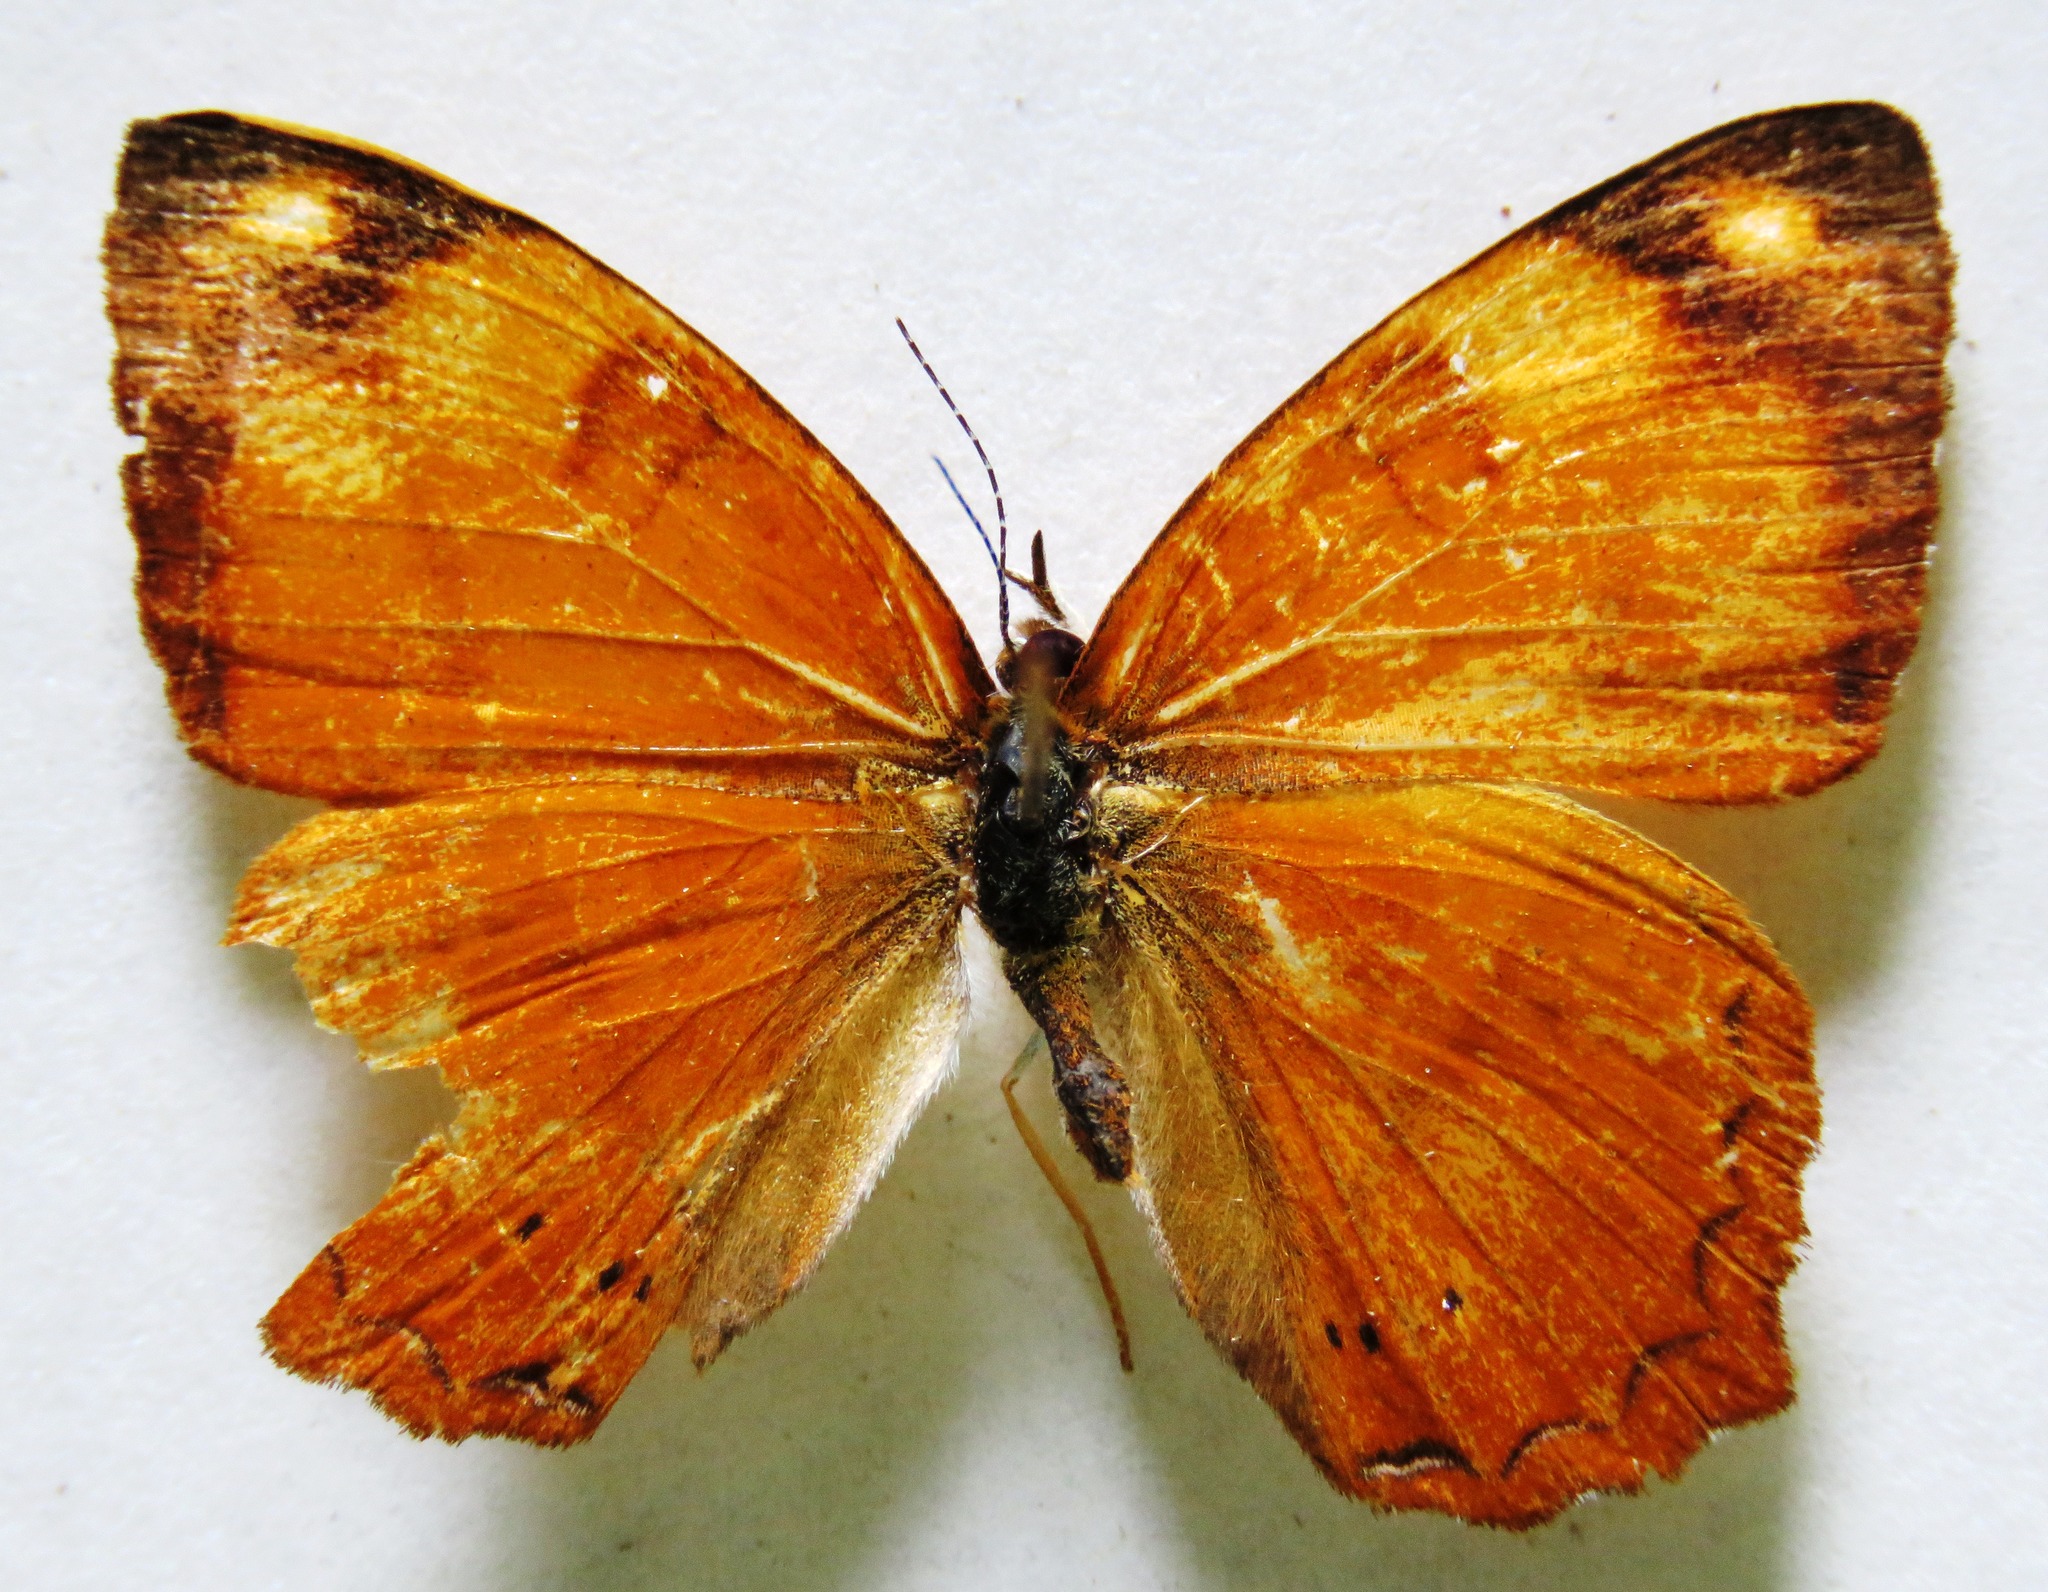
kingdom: Animalia
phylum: Arthropoda
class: Insecta
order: Lepidoptera
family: Nymphalidae
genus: Nica
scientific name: Nica flavilla
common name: Mandarin nica
